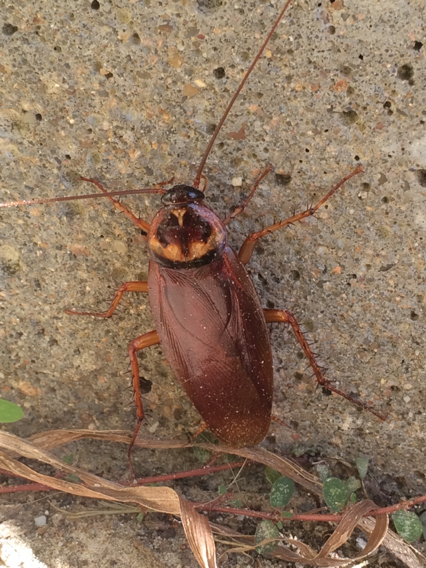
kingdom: Animalia
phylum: Arthropoda
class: Insecta
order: Blattodea
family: Blattidae
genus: Periplaneta
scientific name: Periplaneta americana
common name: American cockroach
